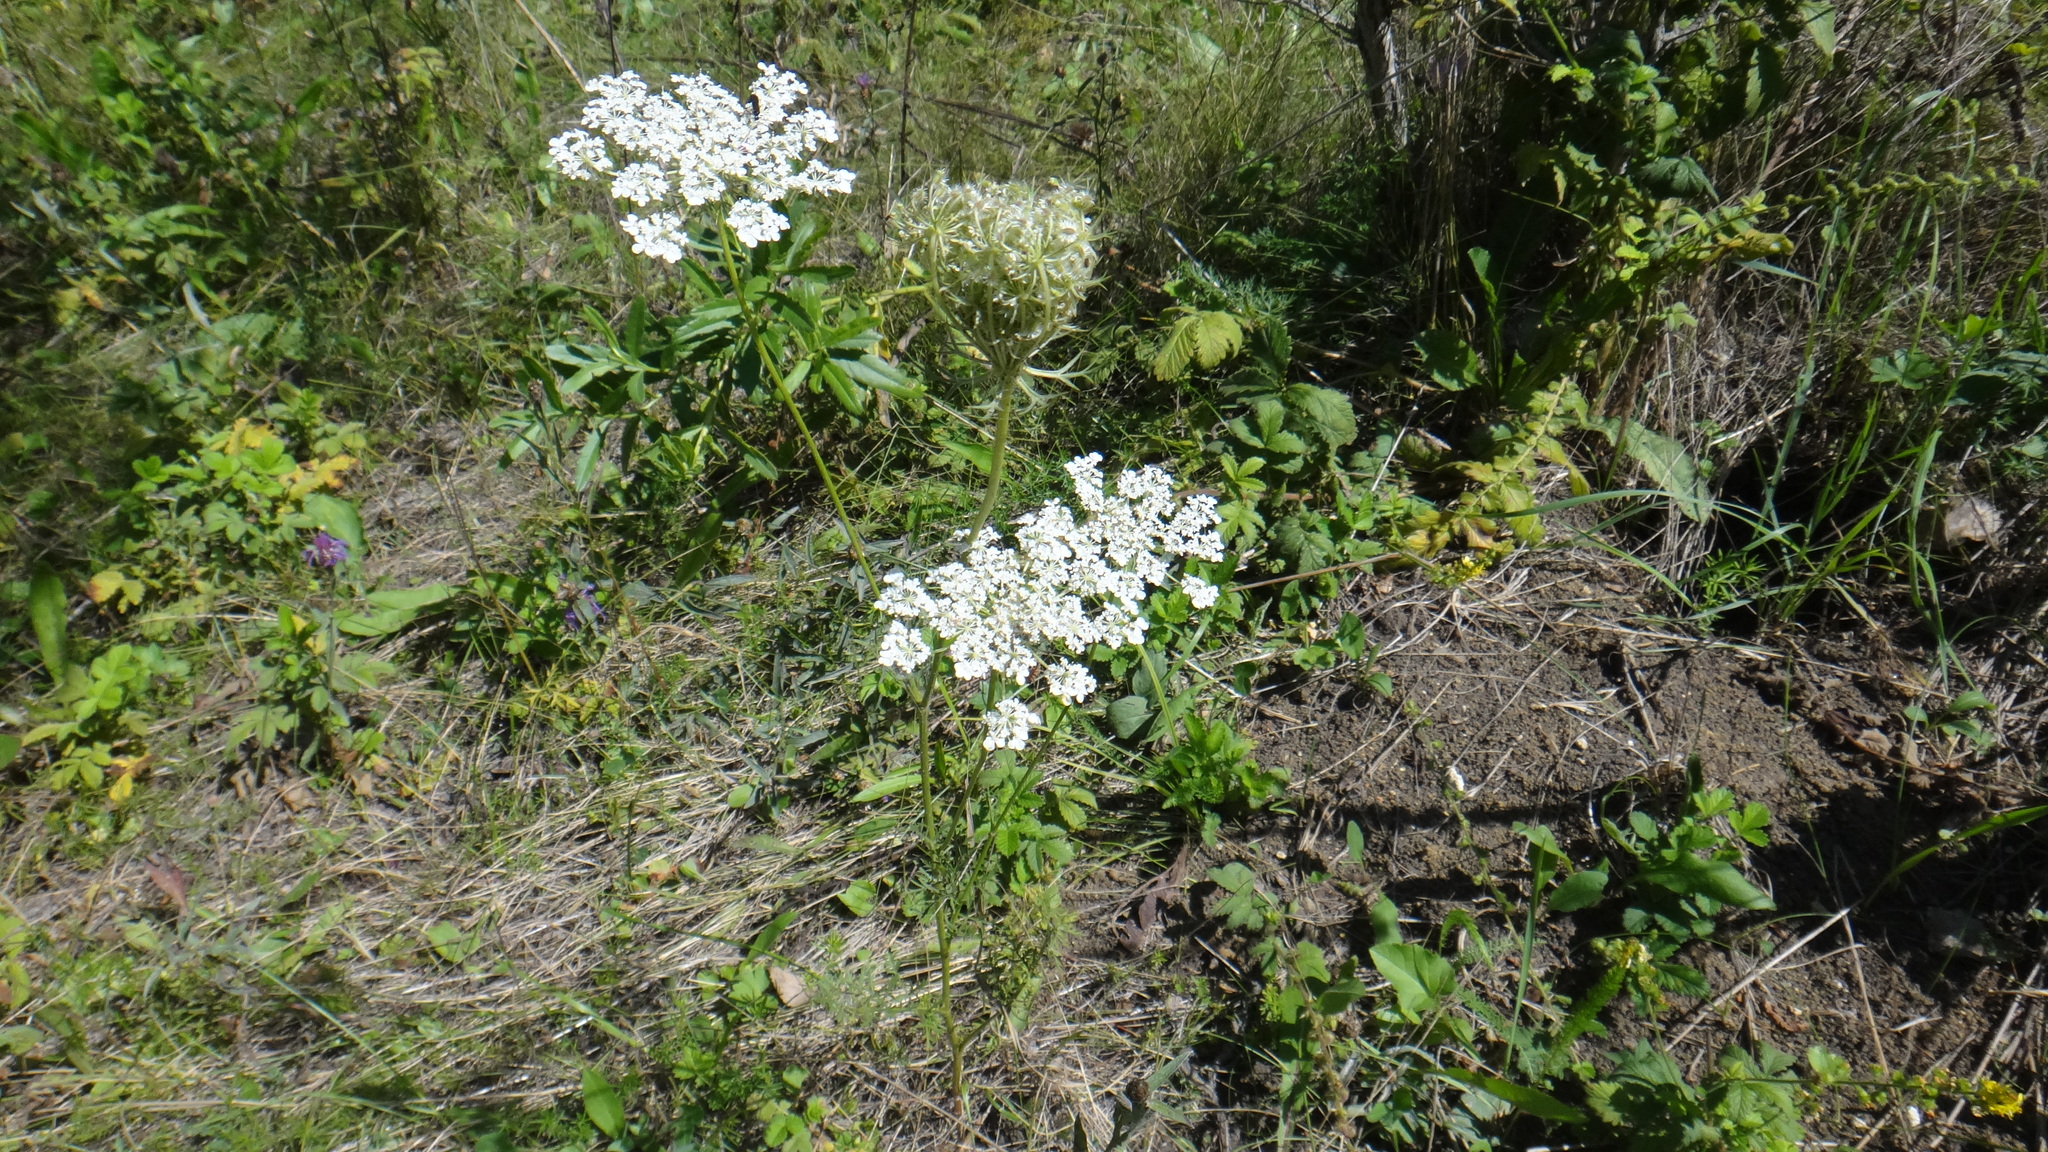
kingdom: Plantae
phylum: Tracheophyta
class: Magnoliopsida
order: Apiales
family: Apiaceae
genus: Daucus
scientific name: Daucus carota
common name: Wild carrot
